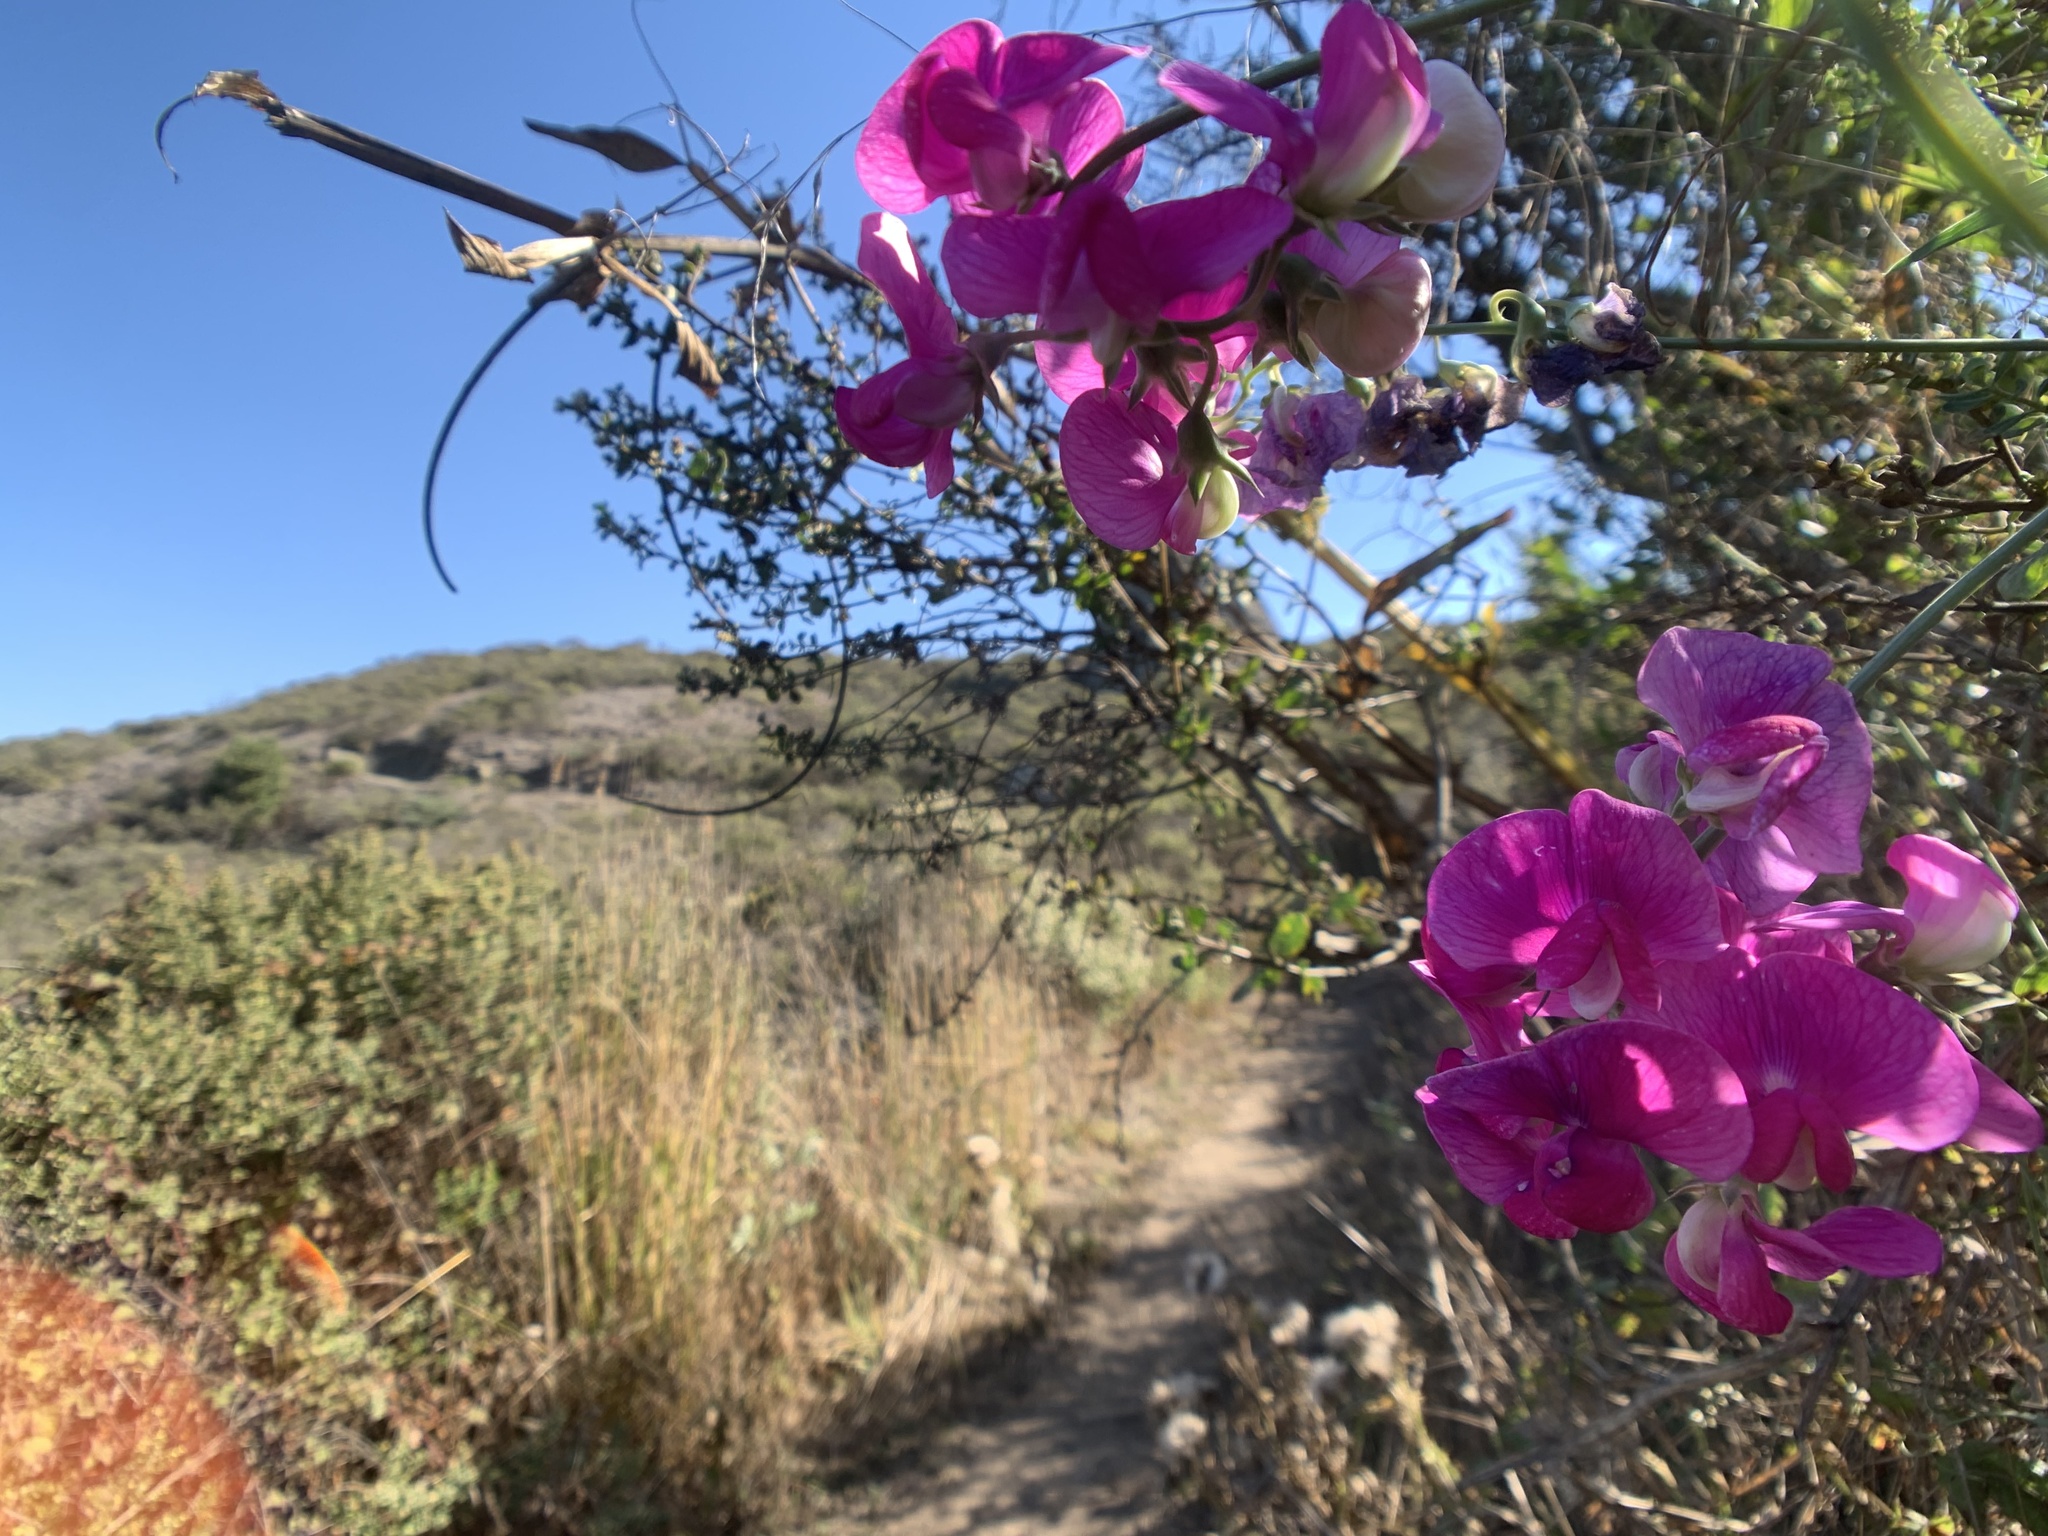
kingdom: Plantae
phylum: Tracheophyta
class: Magnoliopsida
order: Fabales
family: Fabaceae
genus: Lathyrus
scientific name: Lathyrus latifolius
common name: Perennial pea
